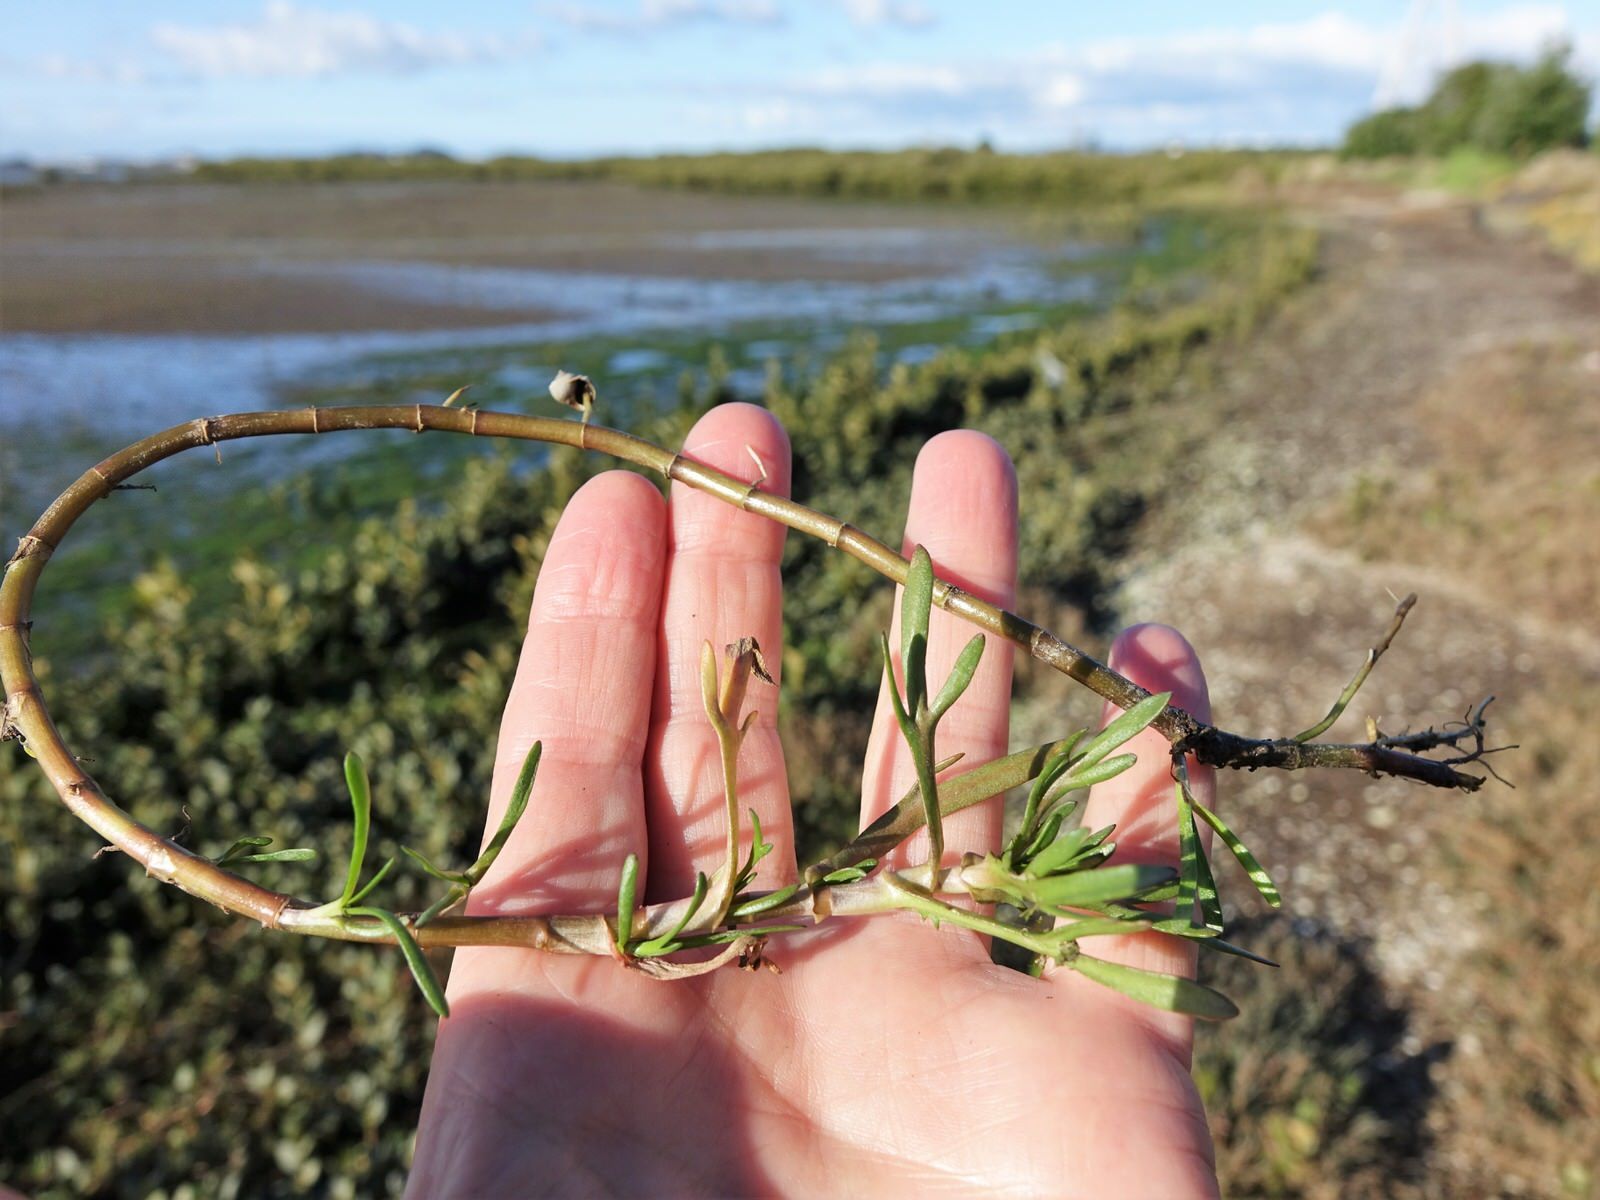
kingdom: Plantae
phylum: Tracheophyta
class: Magnoliopsida
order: Asterales
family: Asteraceae
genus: Cotula
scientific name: Cotula coronopifolia
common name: Buttonweed
